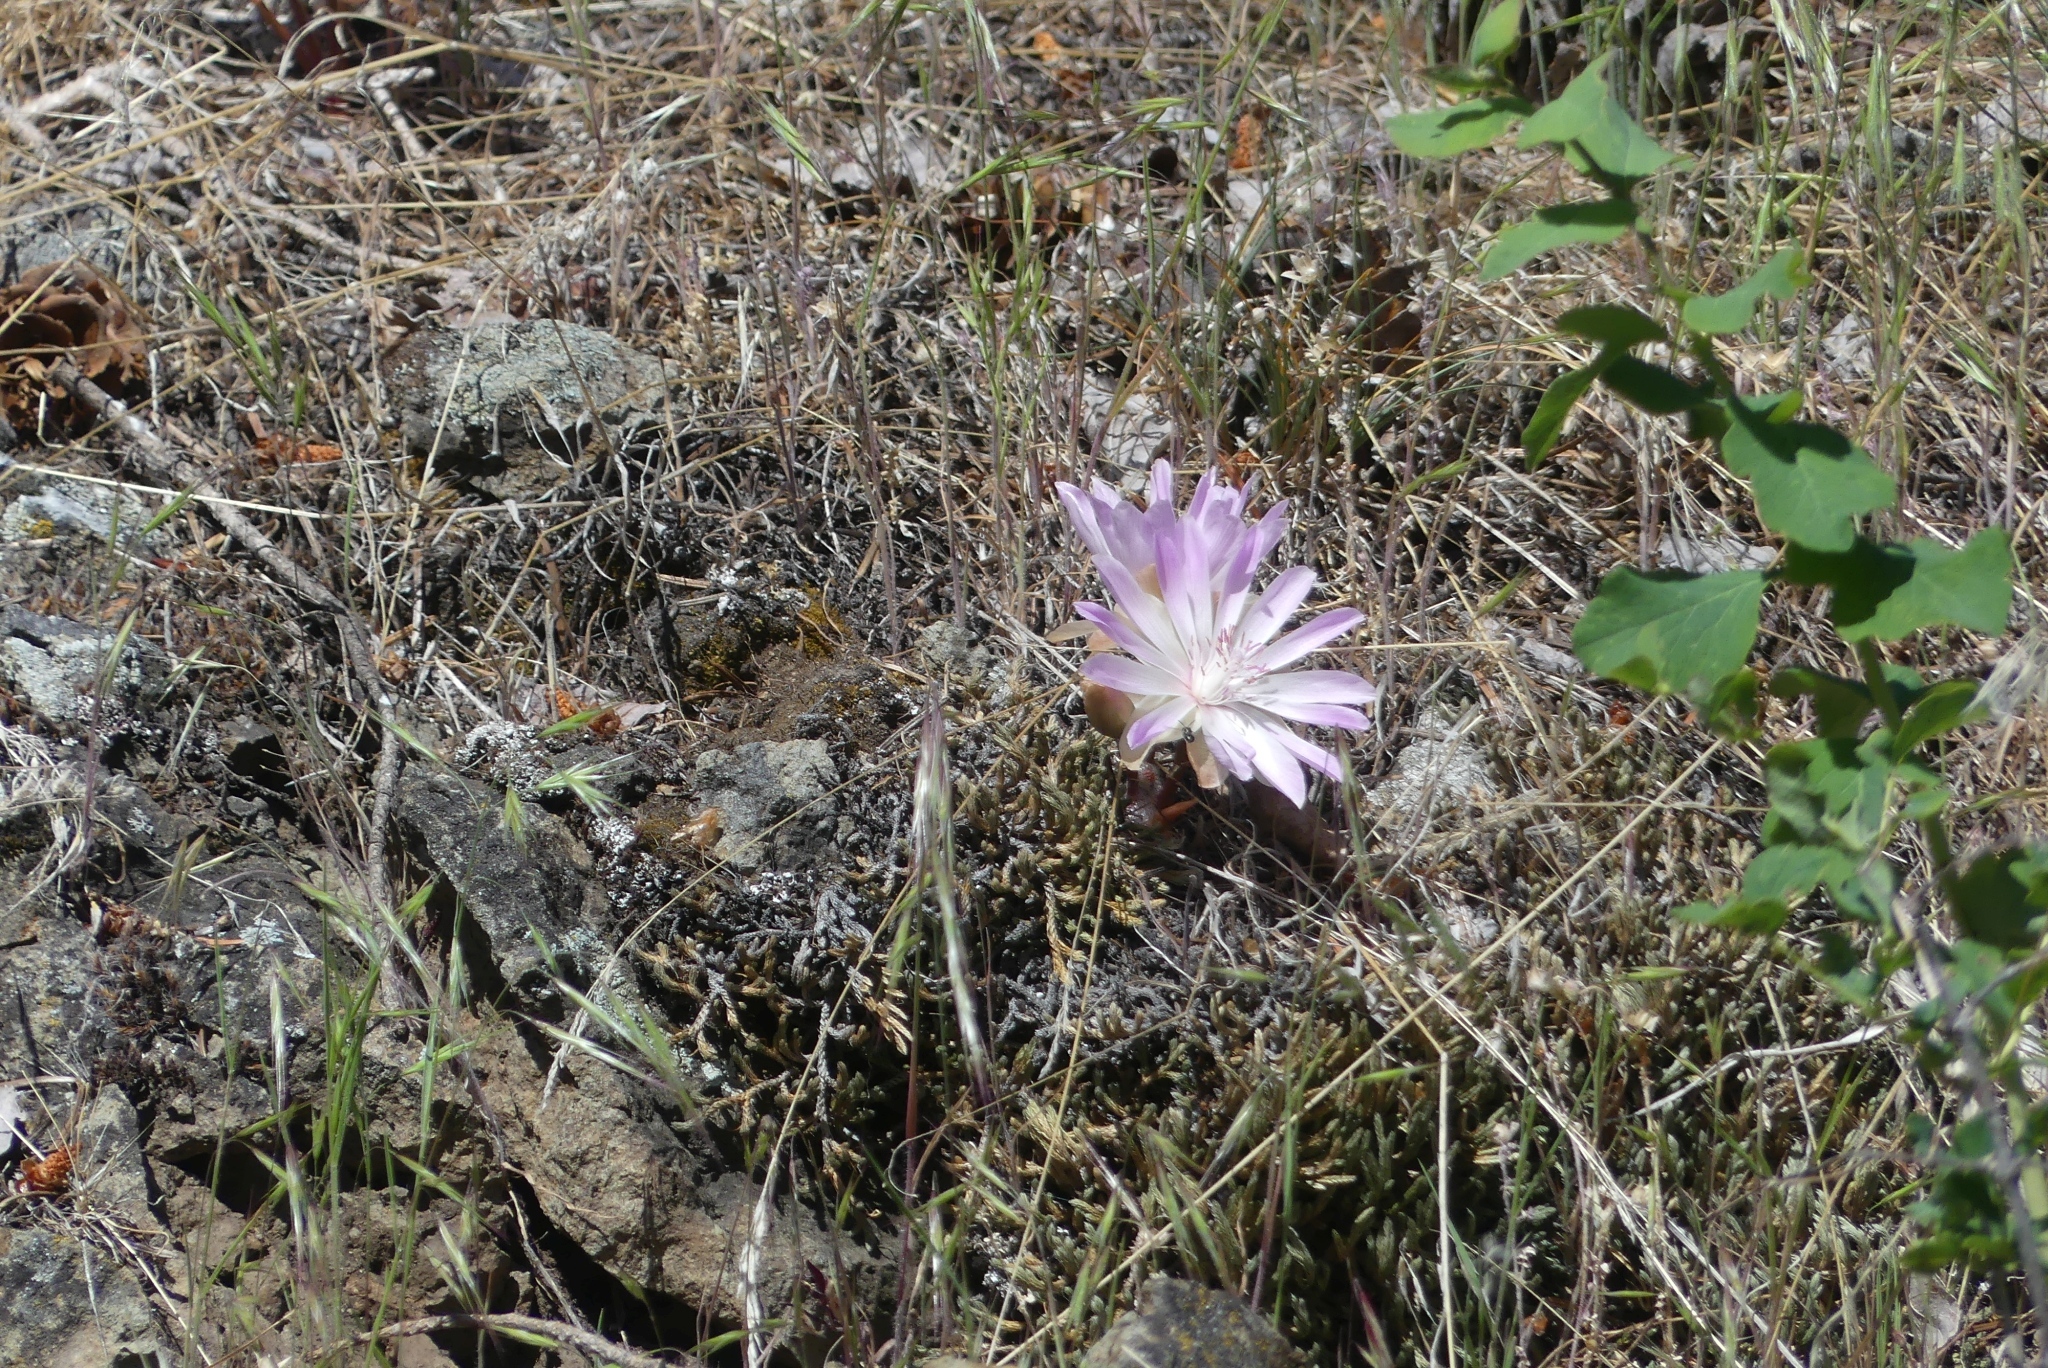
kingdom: Plantae
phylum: Tracheophyta
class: Magnoliopsida
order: Caryophyllales
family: Montiaceae
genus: Lewisia
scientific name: Lewisia rediviva
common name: Bitter-root
